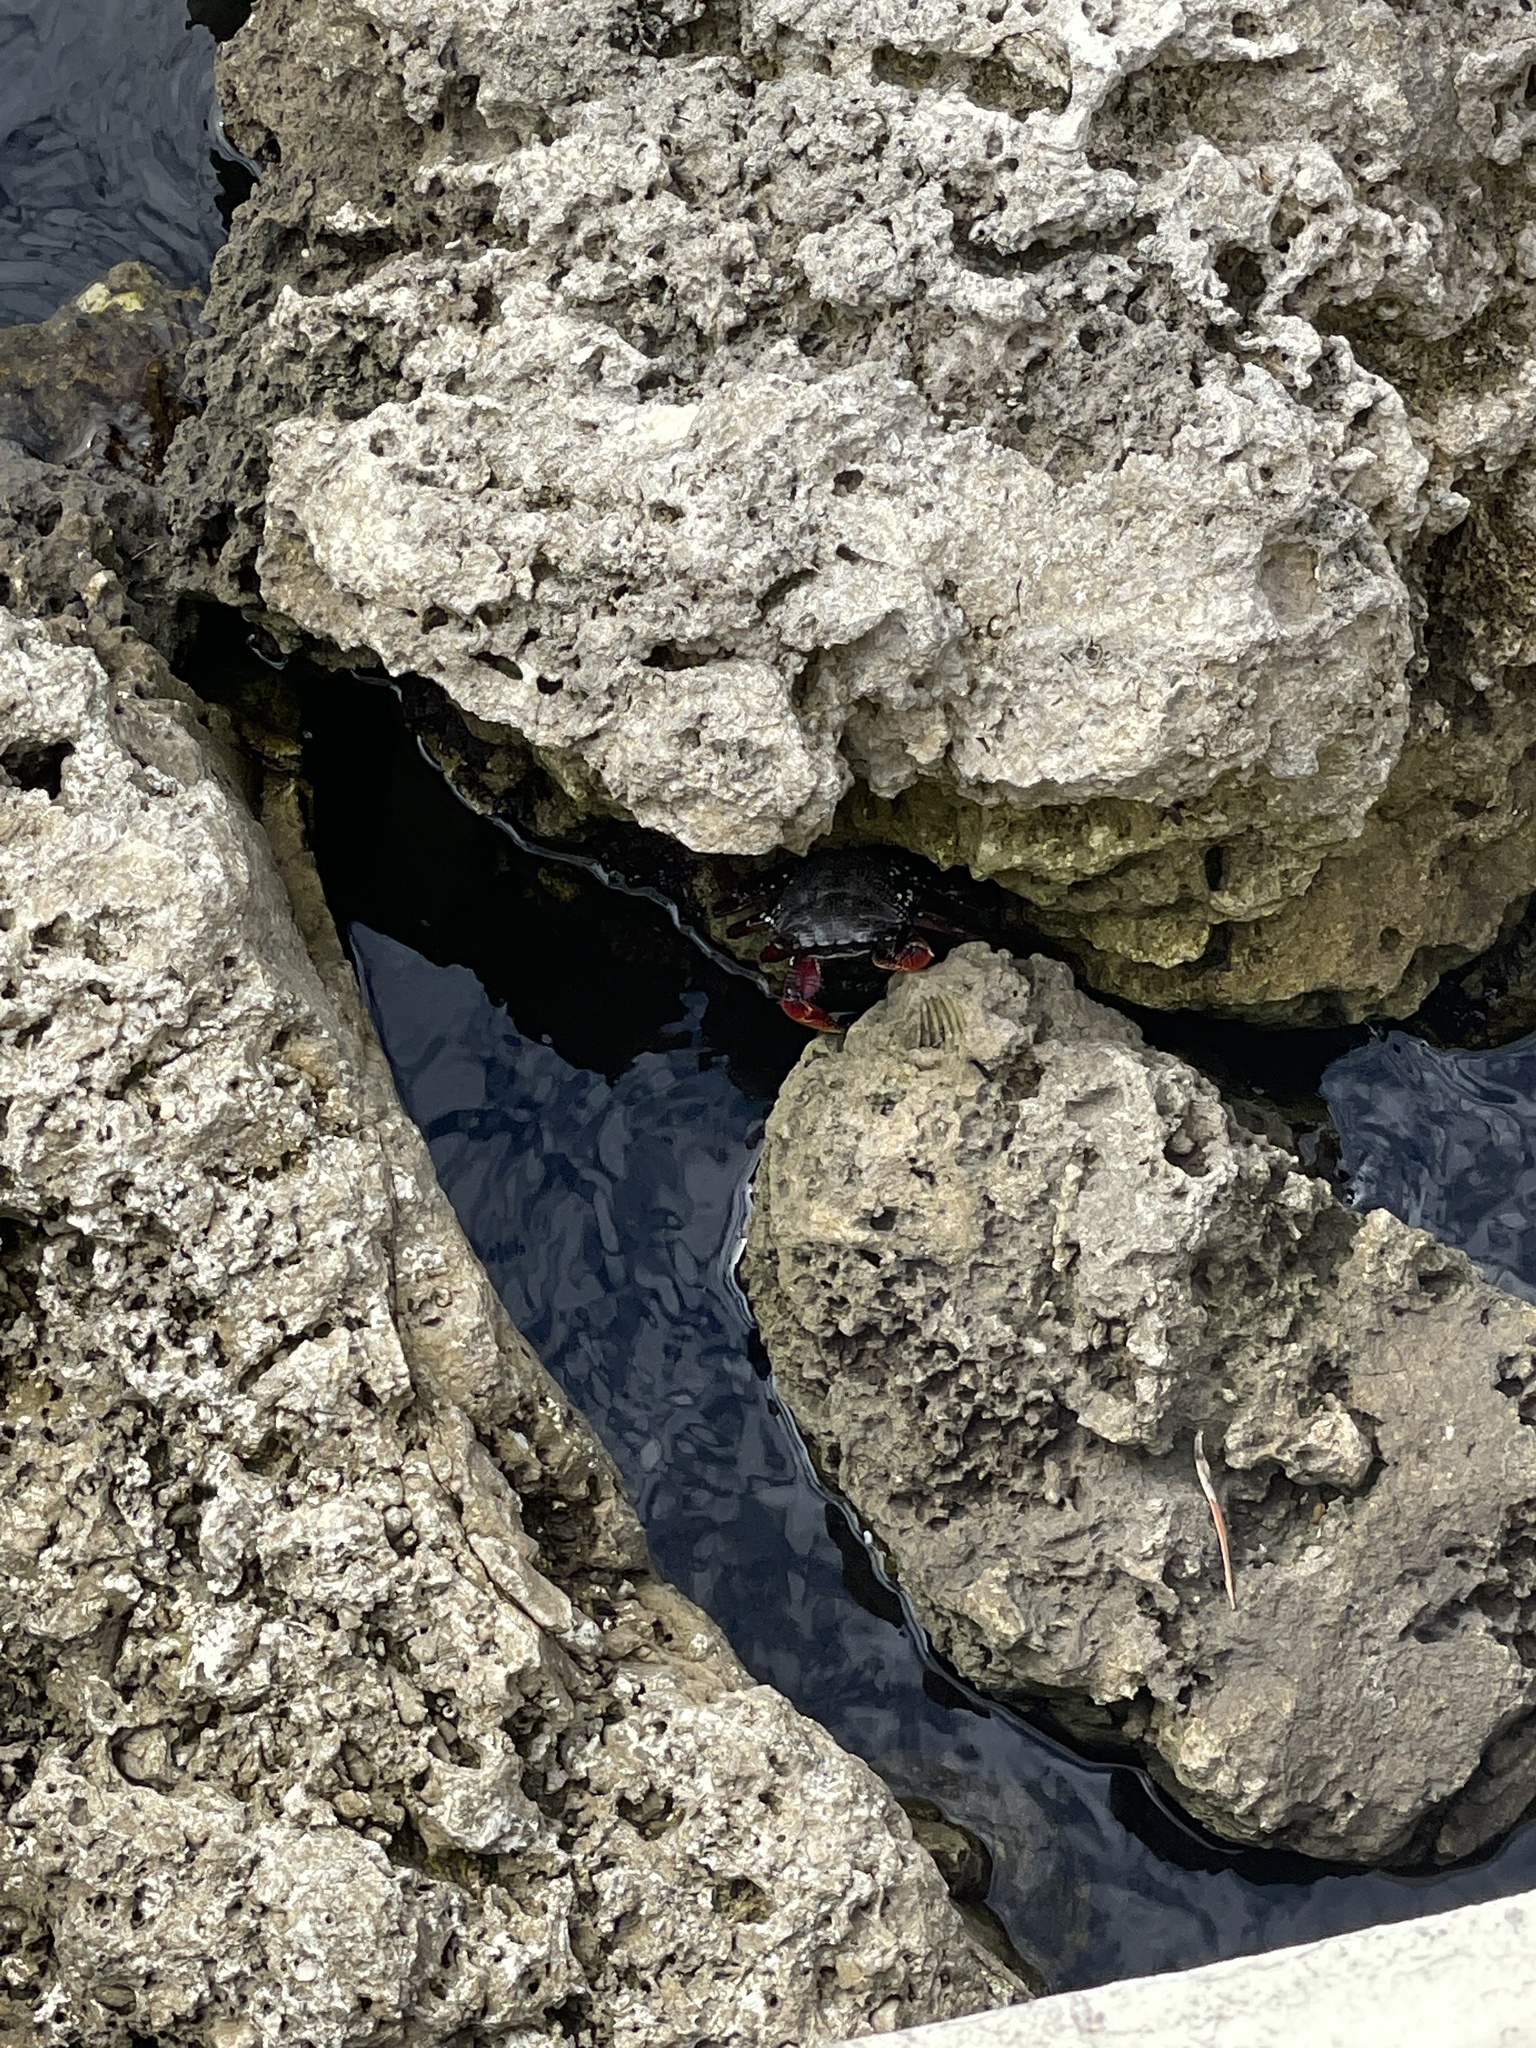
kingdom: Animalia
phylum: Arthropoda
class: Malacostraca
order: Decapoda
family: Grapsidae
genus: Goniopsis
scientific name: Goniopsis cruentata
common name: Mangrove crab
